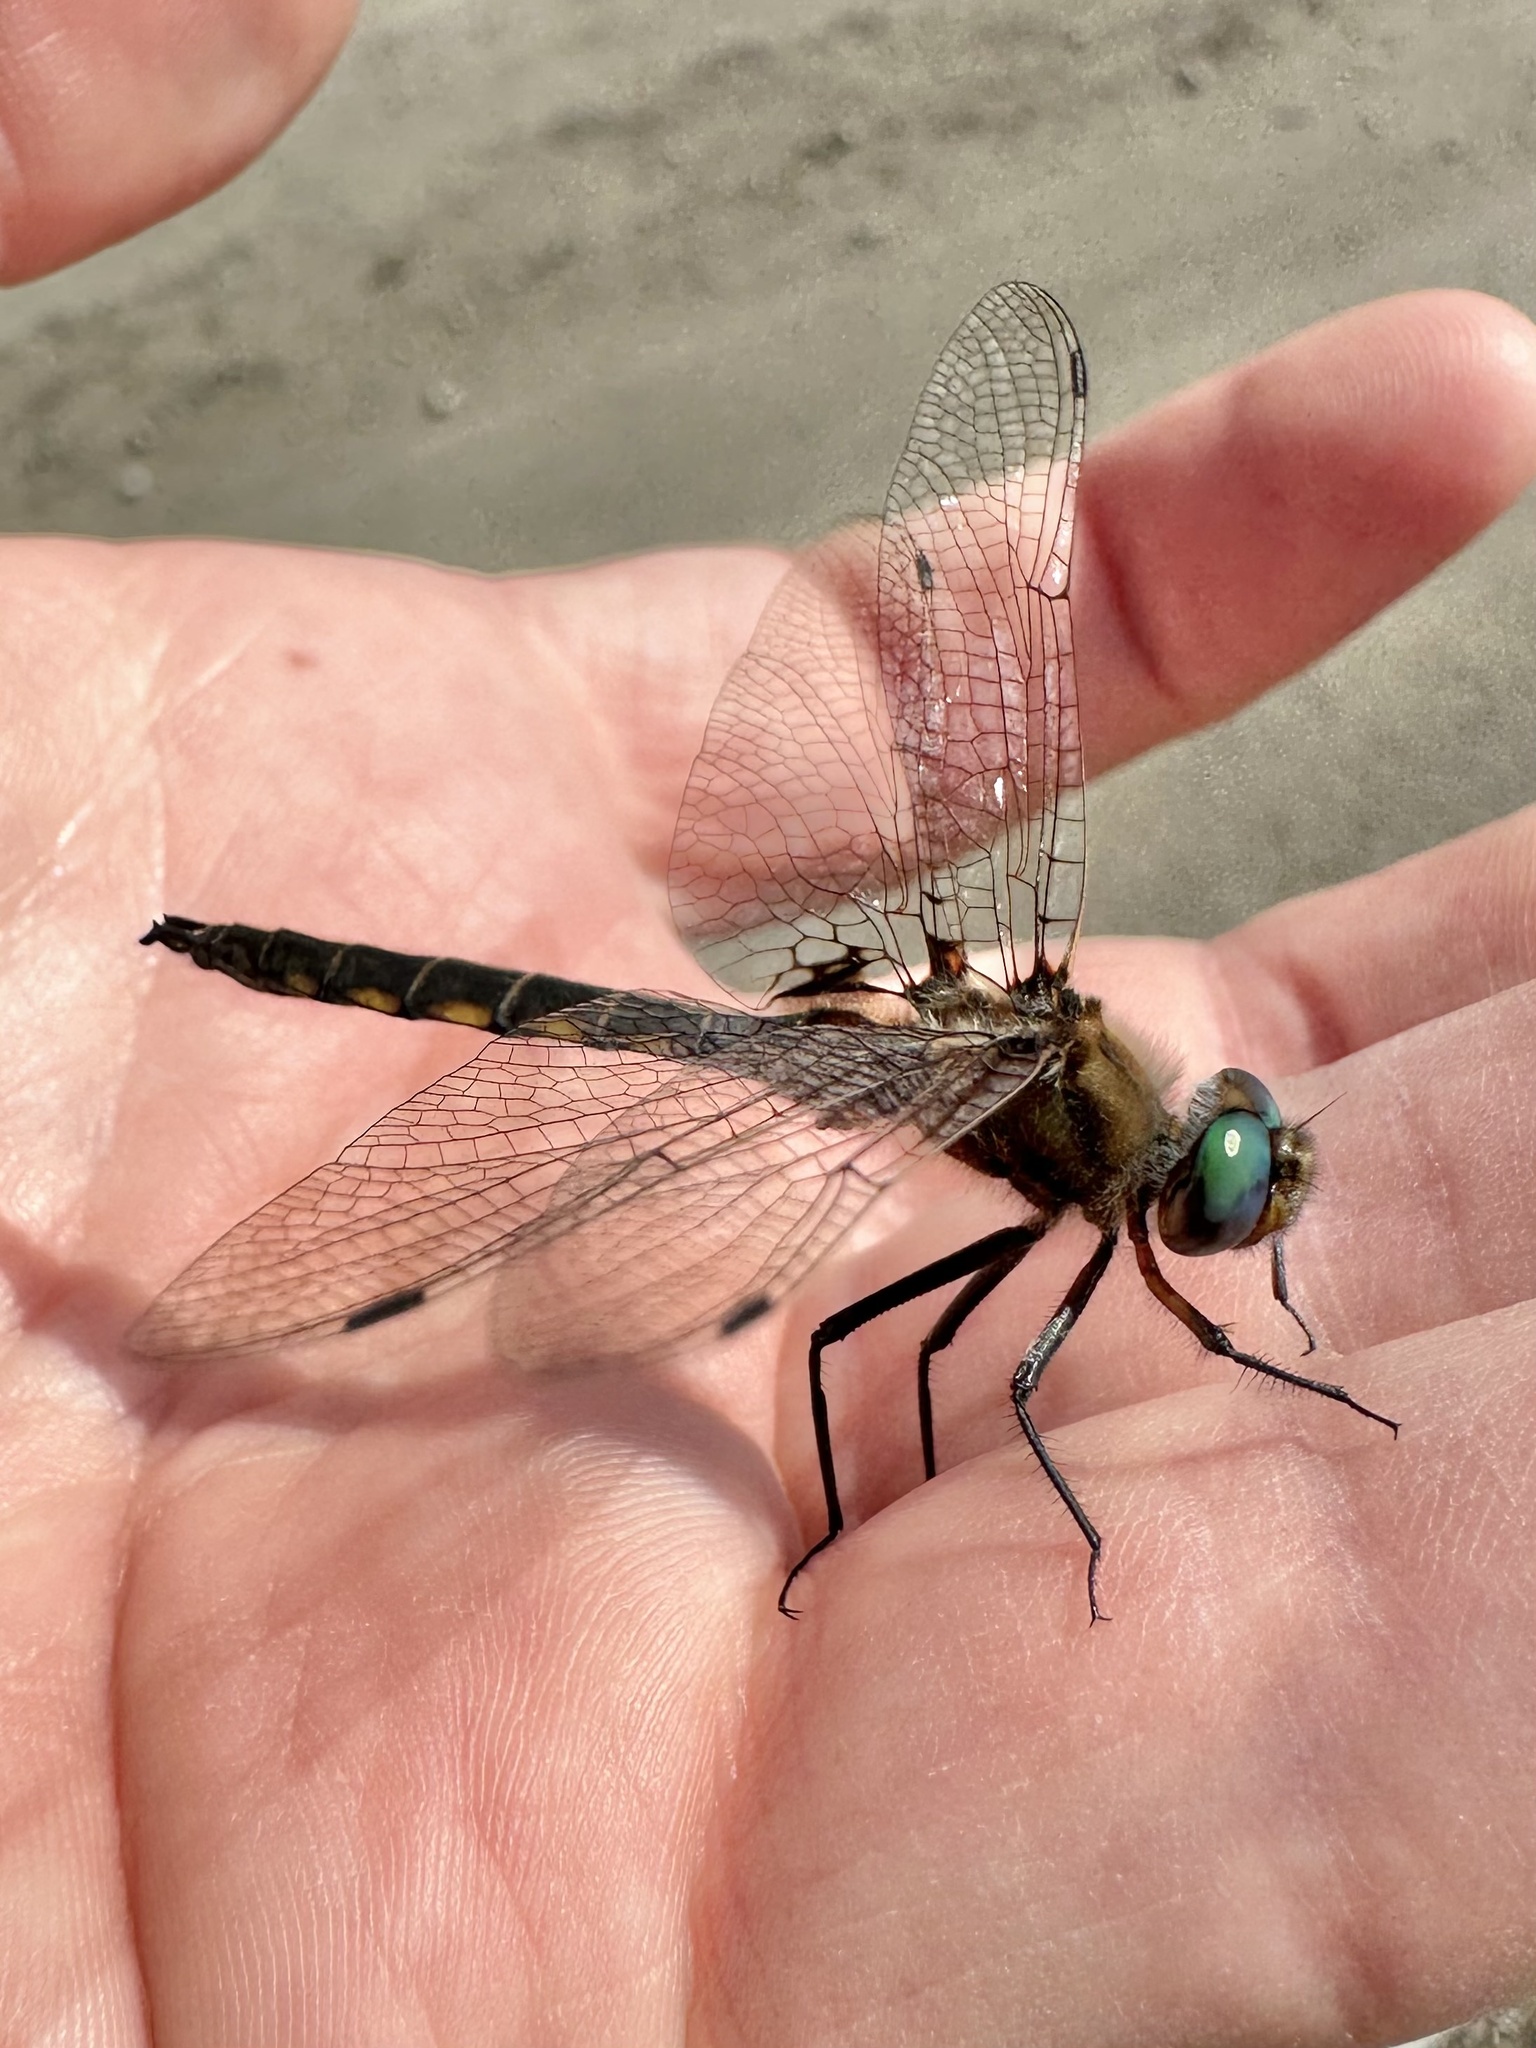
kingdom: Animalia
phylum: Arthropoda
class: Insecta
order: Odonata
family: Corduliidae
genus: Epitheca
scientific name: Epitheca canis
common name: Beaverpond baskettail
